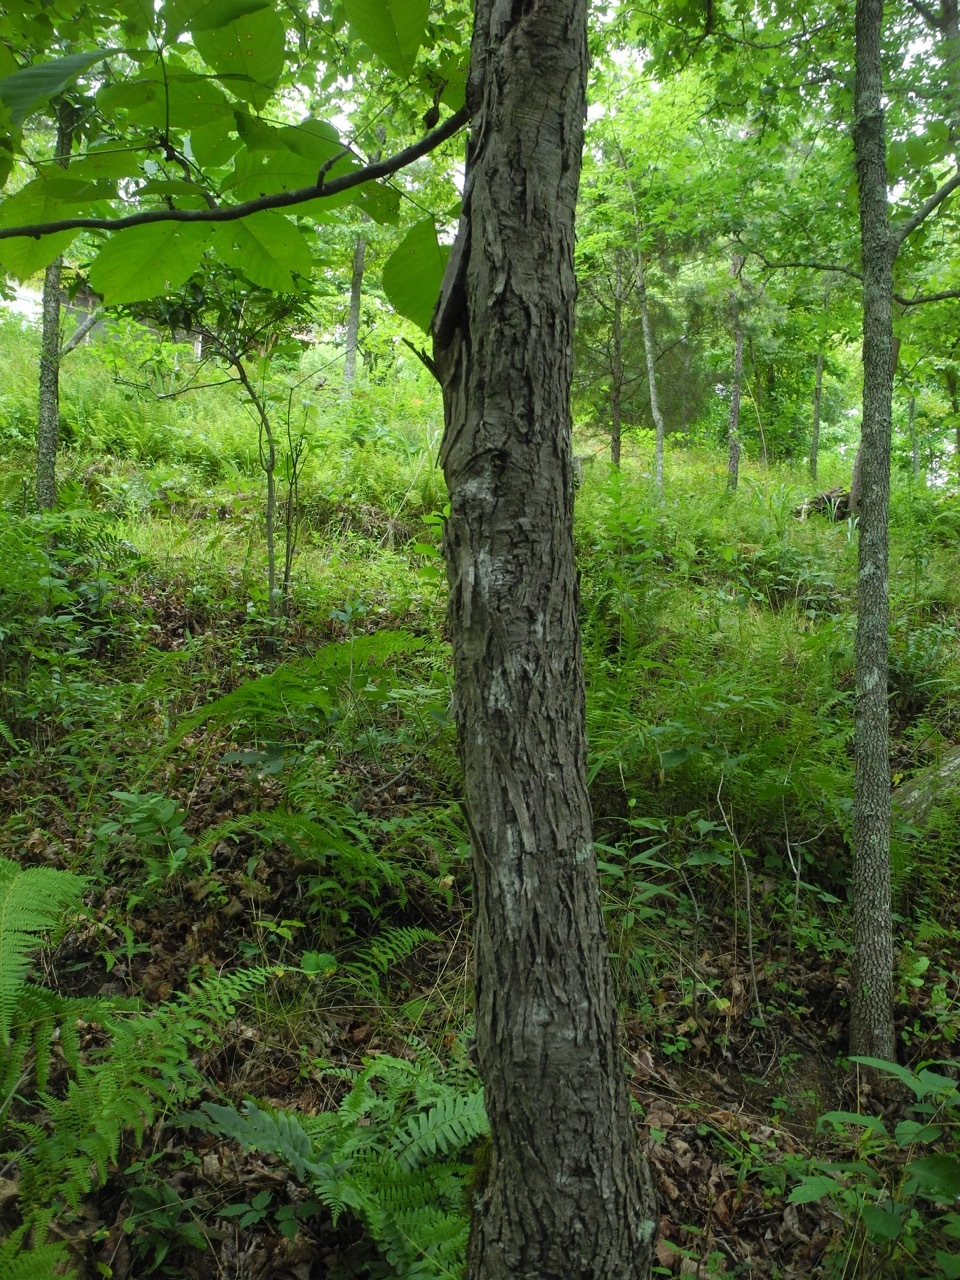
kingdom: Plantae
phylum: Tracheophyta
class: Magnoliopsida
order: Fagales
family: Juglandaceae
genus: Carya
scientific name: Carya ovata
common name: Shagbark hickory
